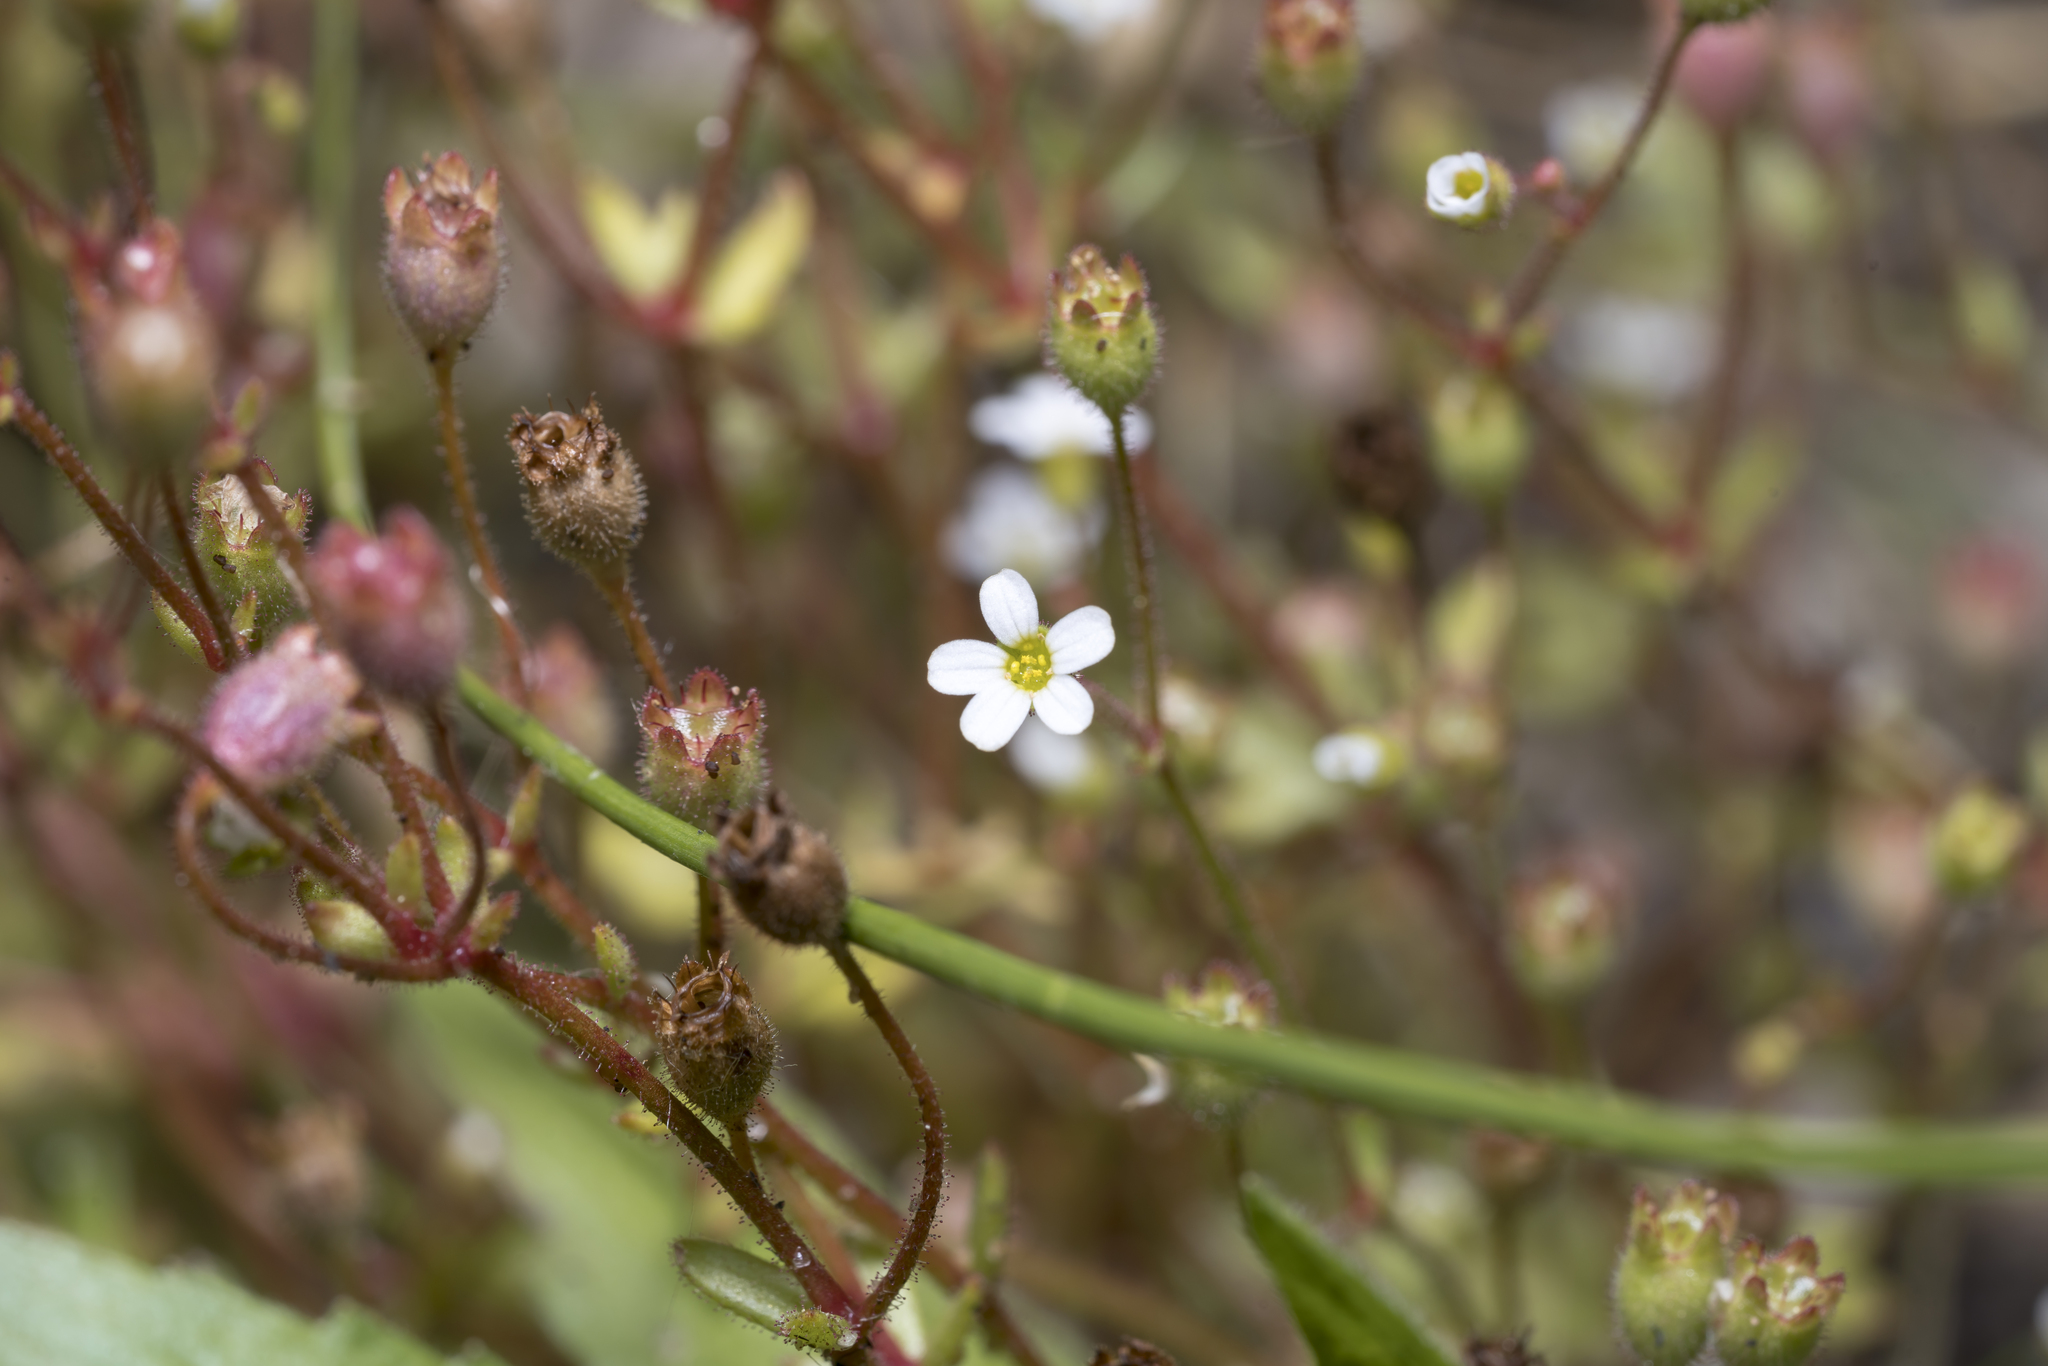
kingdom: Plantae
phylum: Tracheophyta
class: Magnoliopsida
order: Saxifragales
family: Saxifragaceae
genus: Saxifraga
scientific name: Saxifraga tridactylites
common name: Rue-leaved saxifrage
